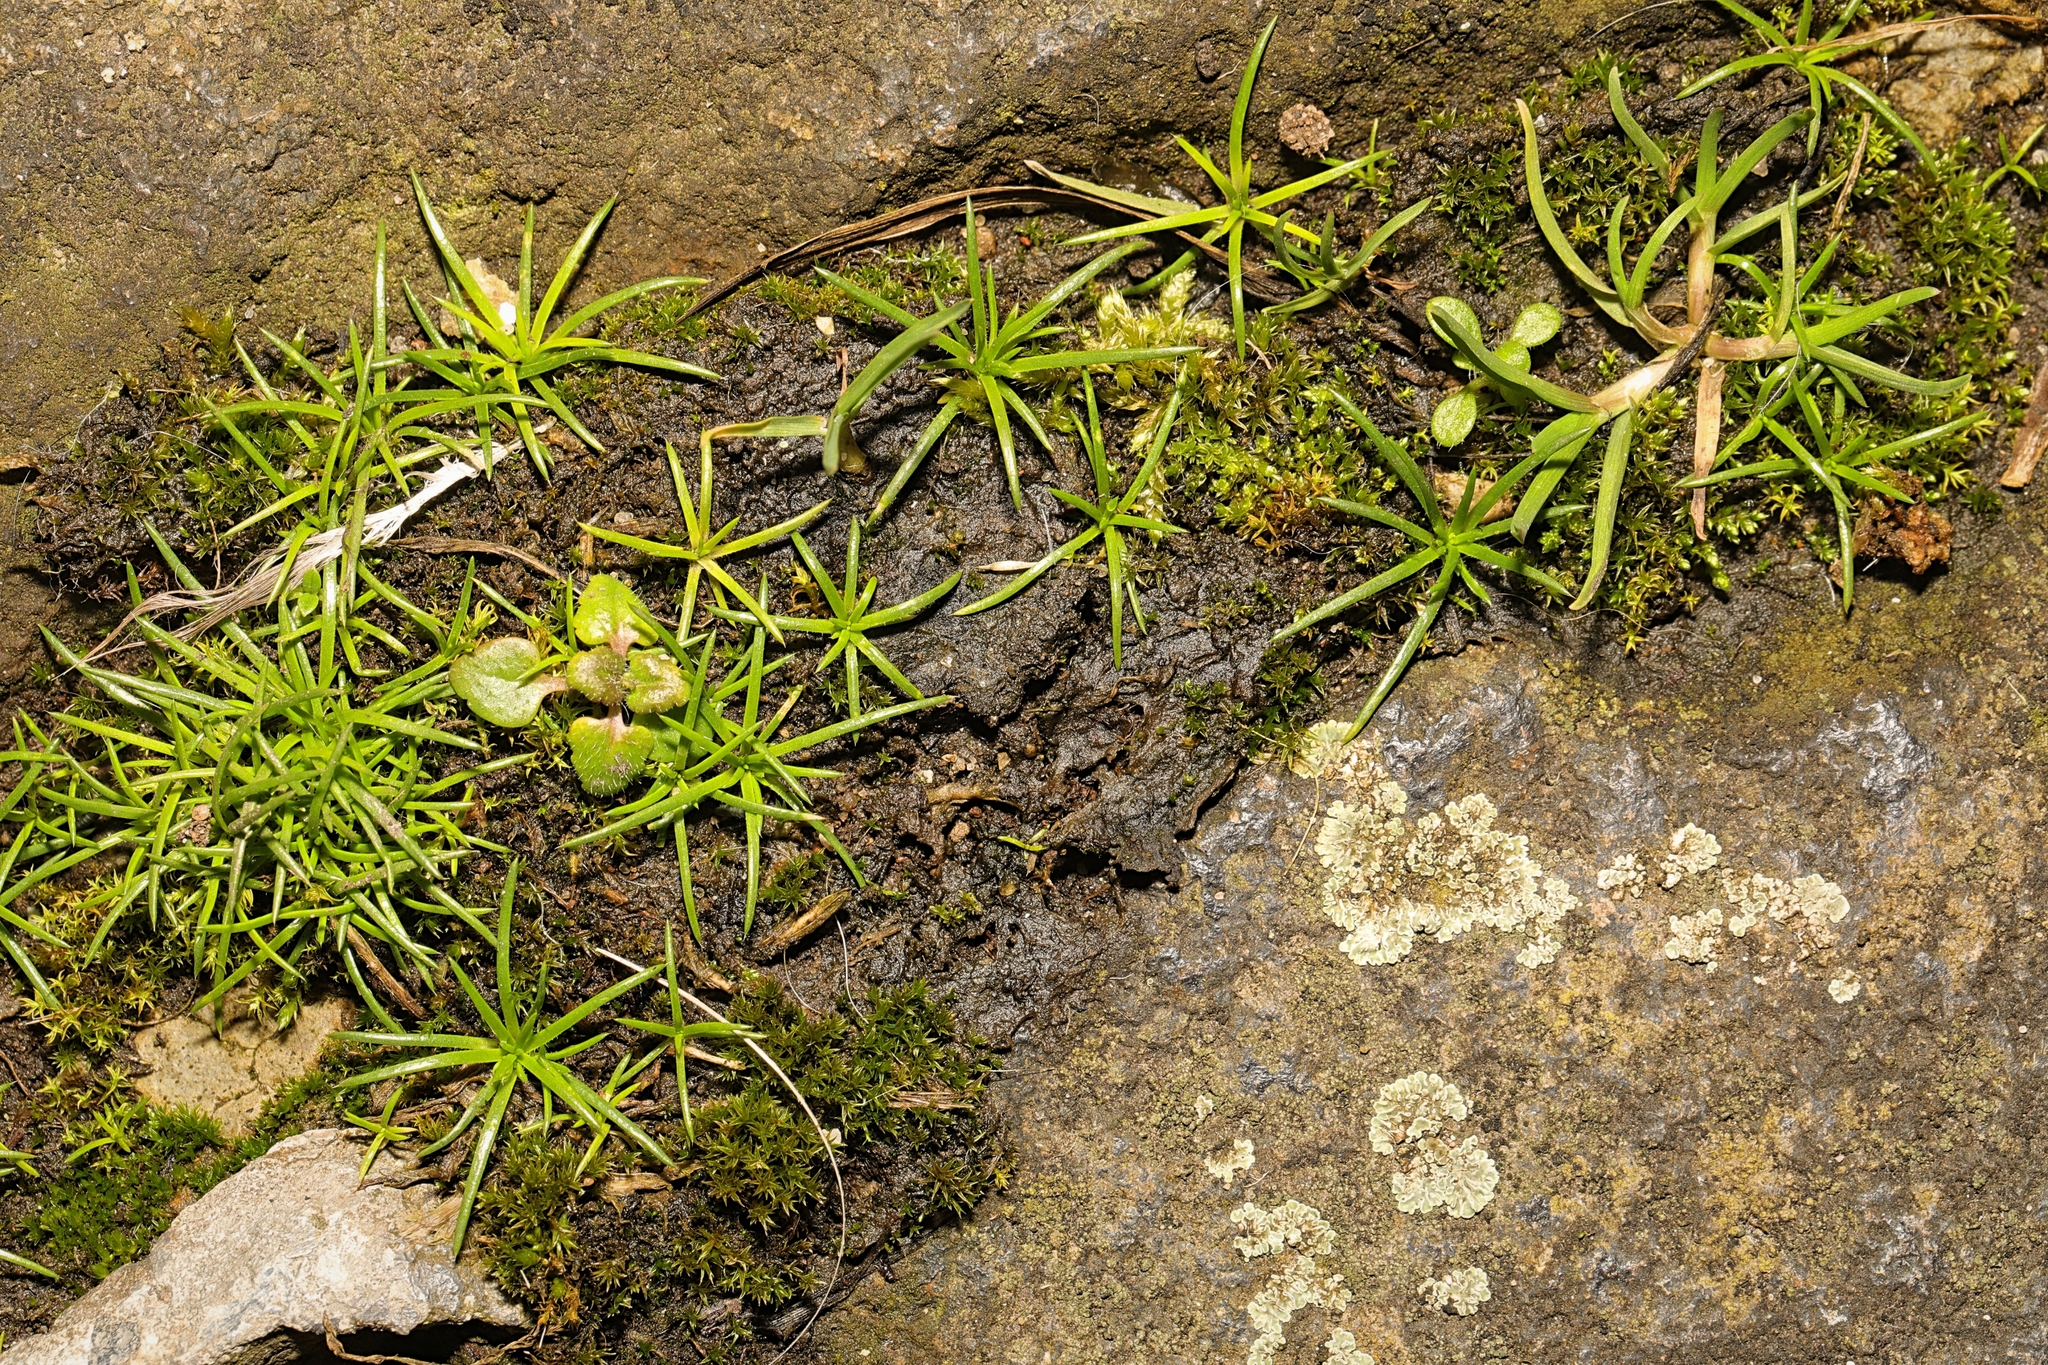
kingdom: Plantae
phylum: Tracheophyta
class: Magnoliopsida
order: Caryophyllales
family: Caryophyllaceae
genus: Sagina
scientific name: Sagina procumbens
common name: Procumbent pearlwort
